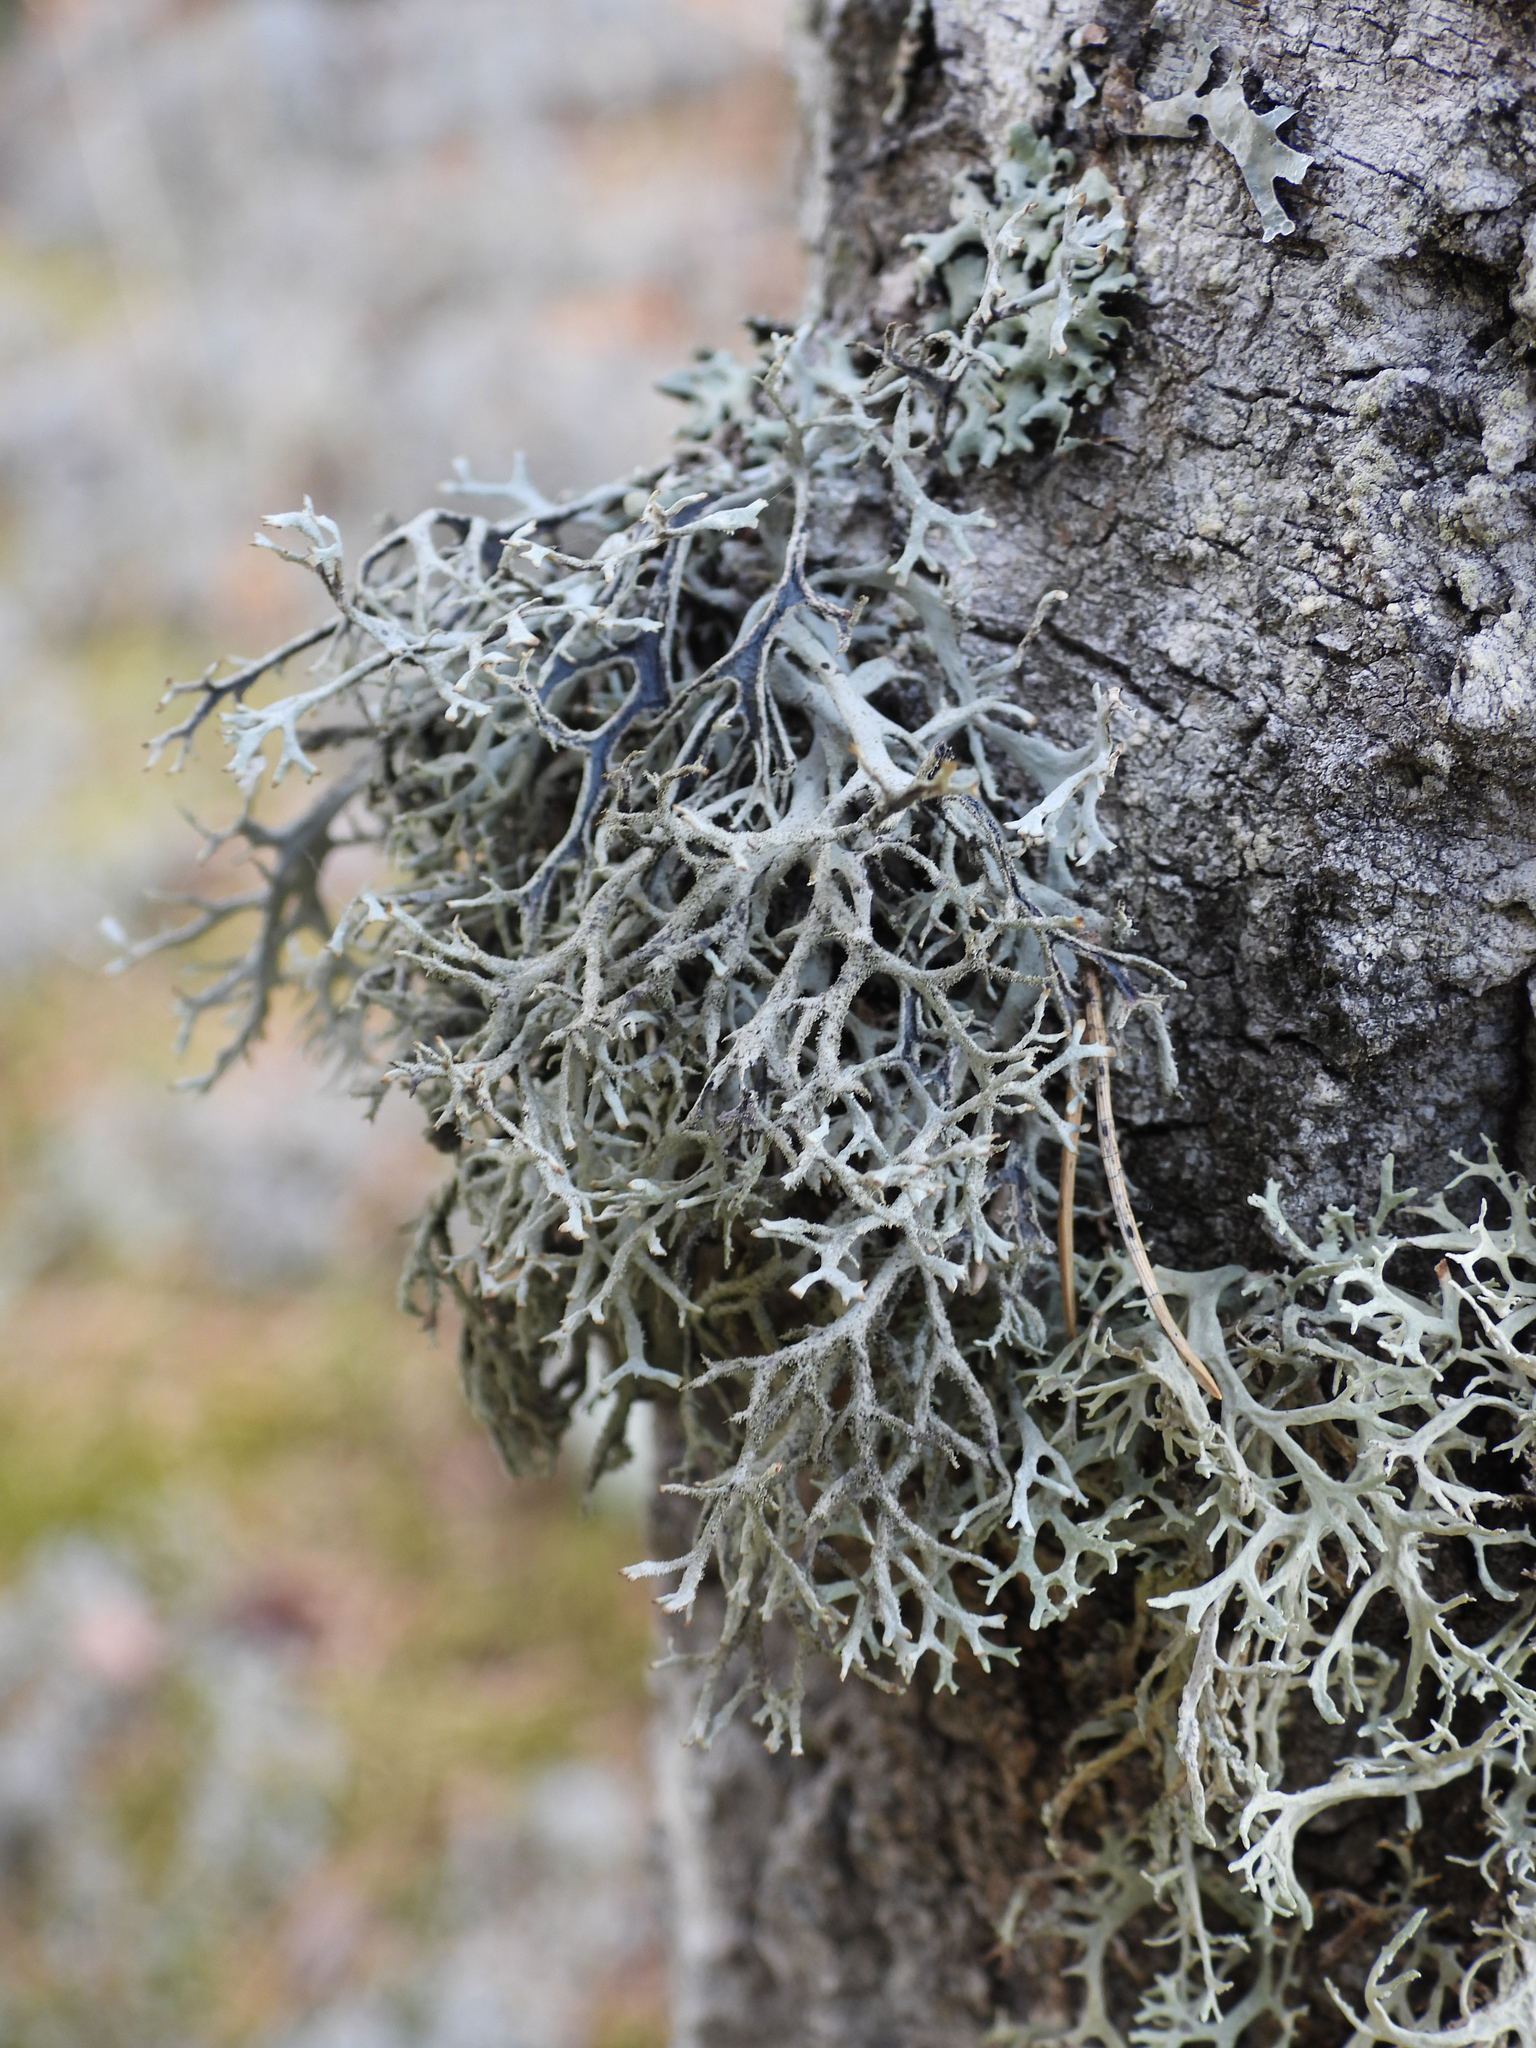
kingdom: Fungi
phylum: Ascomycota
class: Lecanoromycetes
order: Lecanorales
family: Parmeliaceae
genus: Pseudevernia
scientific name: Pseudevernia furfuracea
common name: Tree moss
